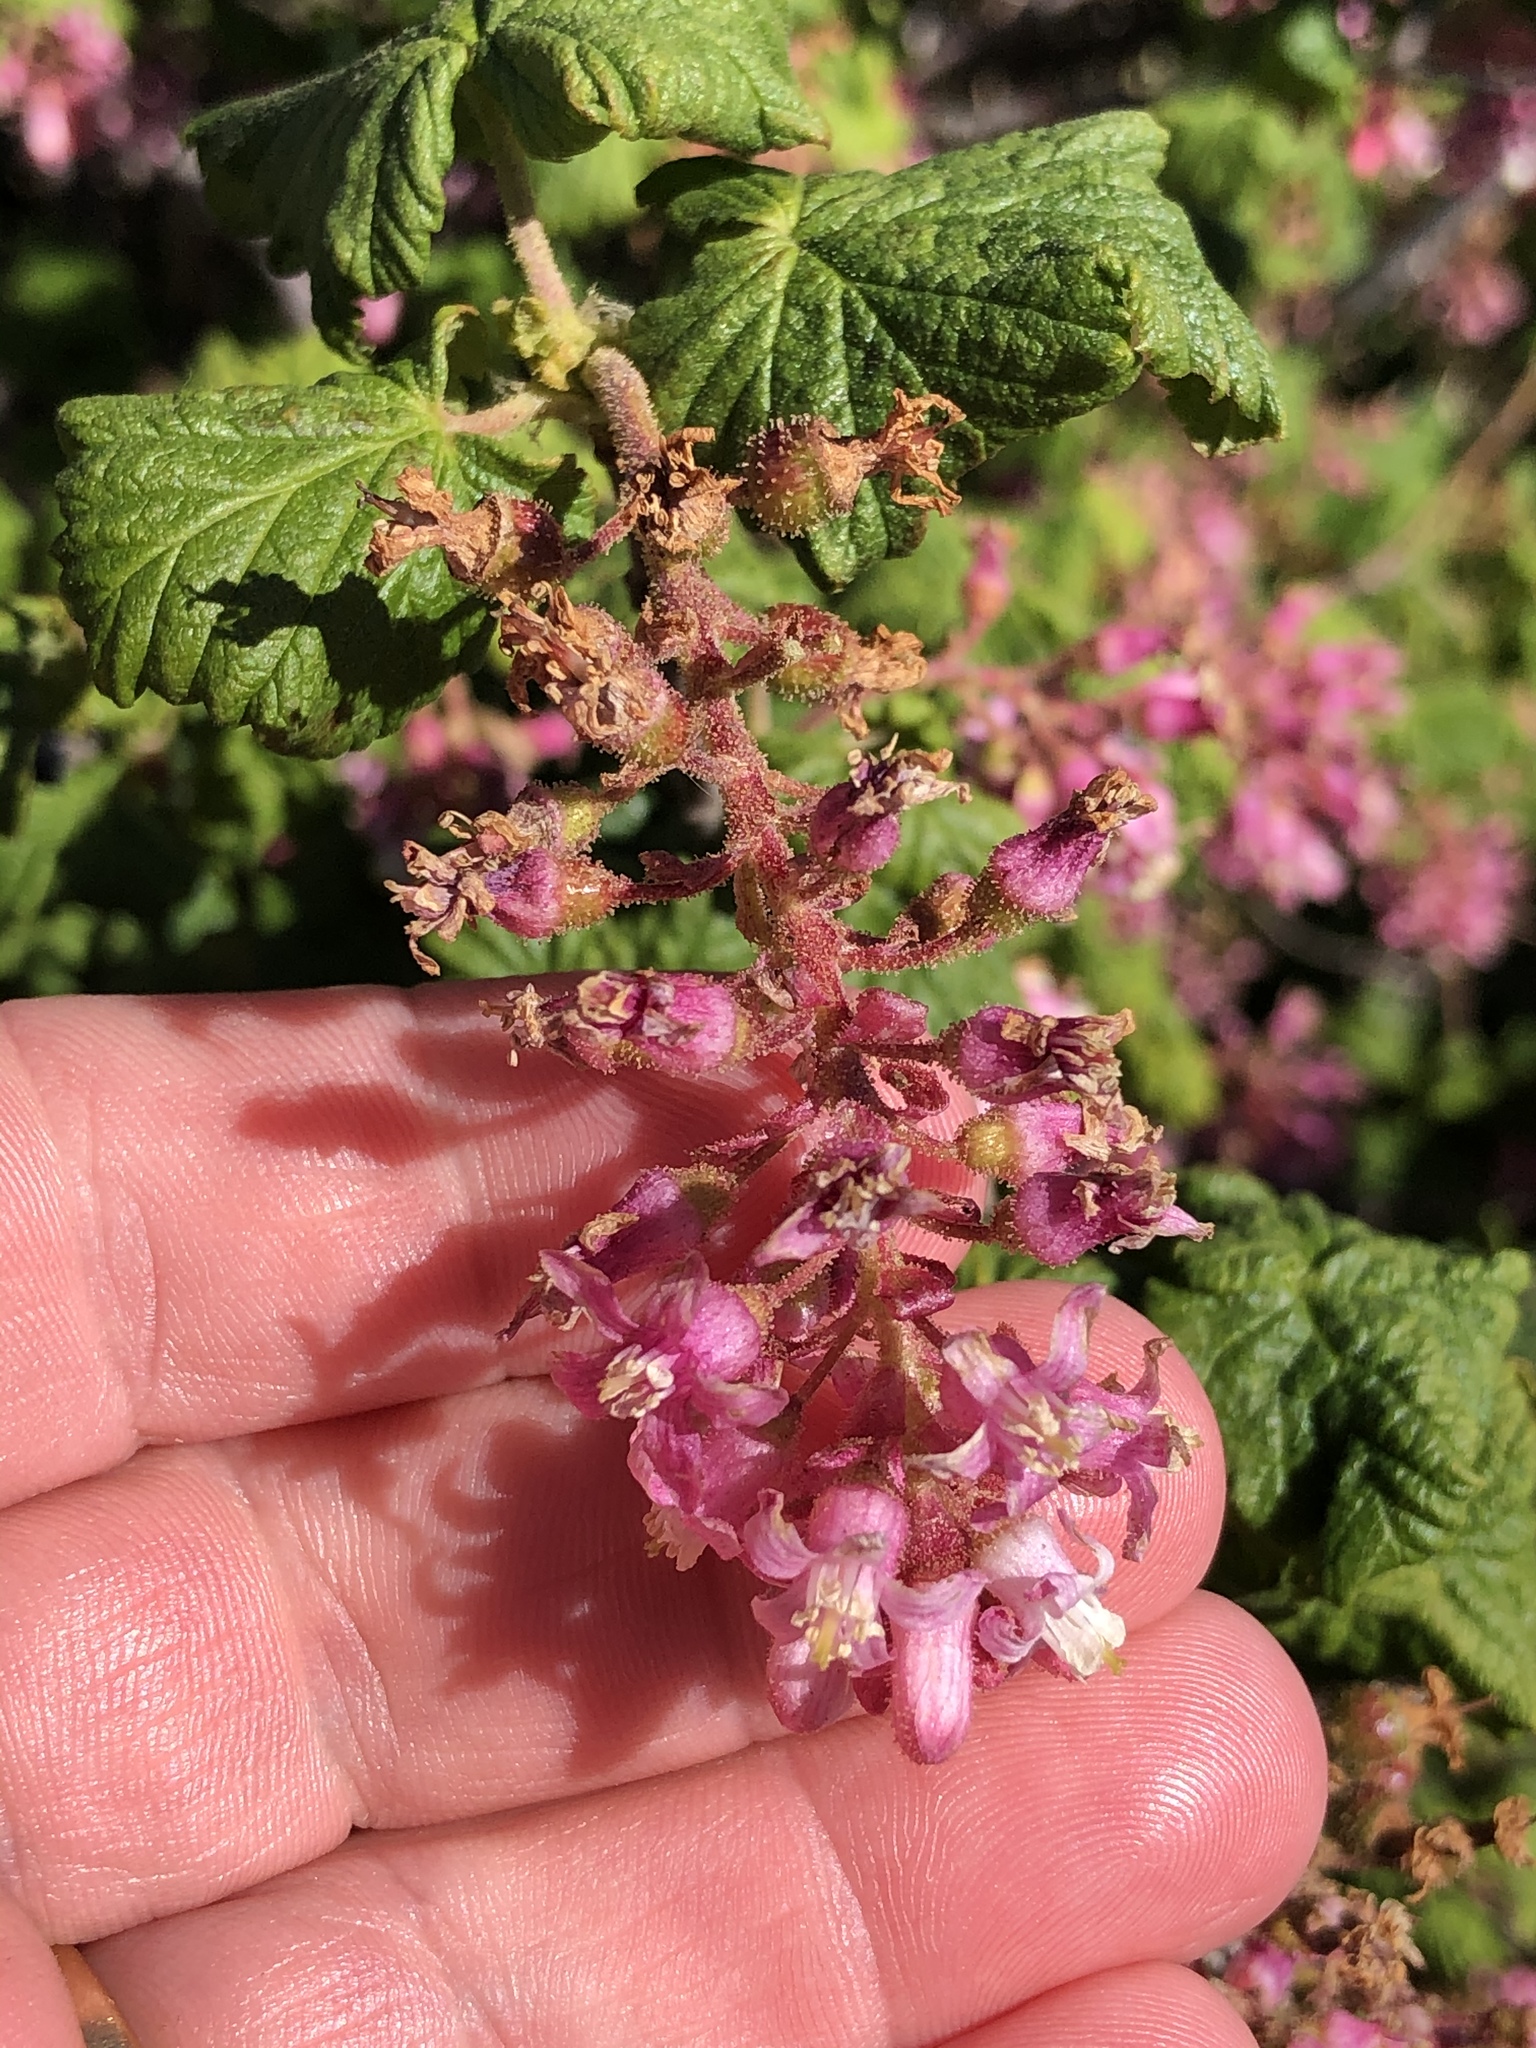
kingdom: Plantae
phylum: Tracheophyta
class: Magnoliopsida
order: Saxifragales
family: Grossulariaceae
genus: Ribes
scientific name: Ribes sanguineum
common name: Flowering currant
